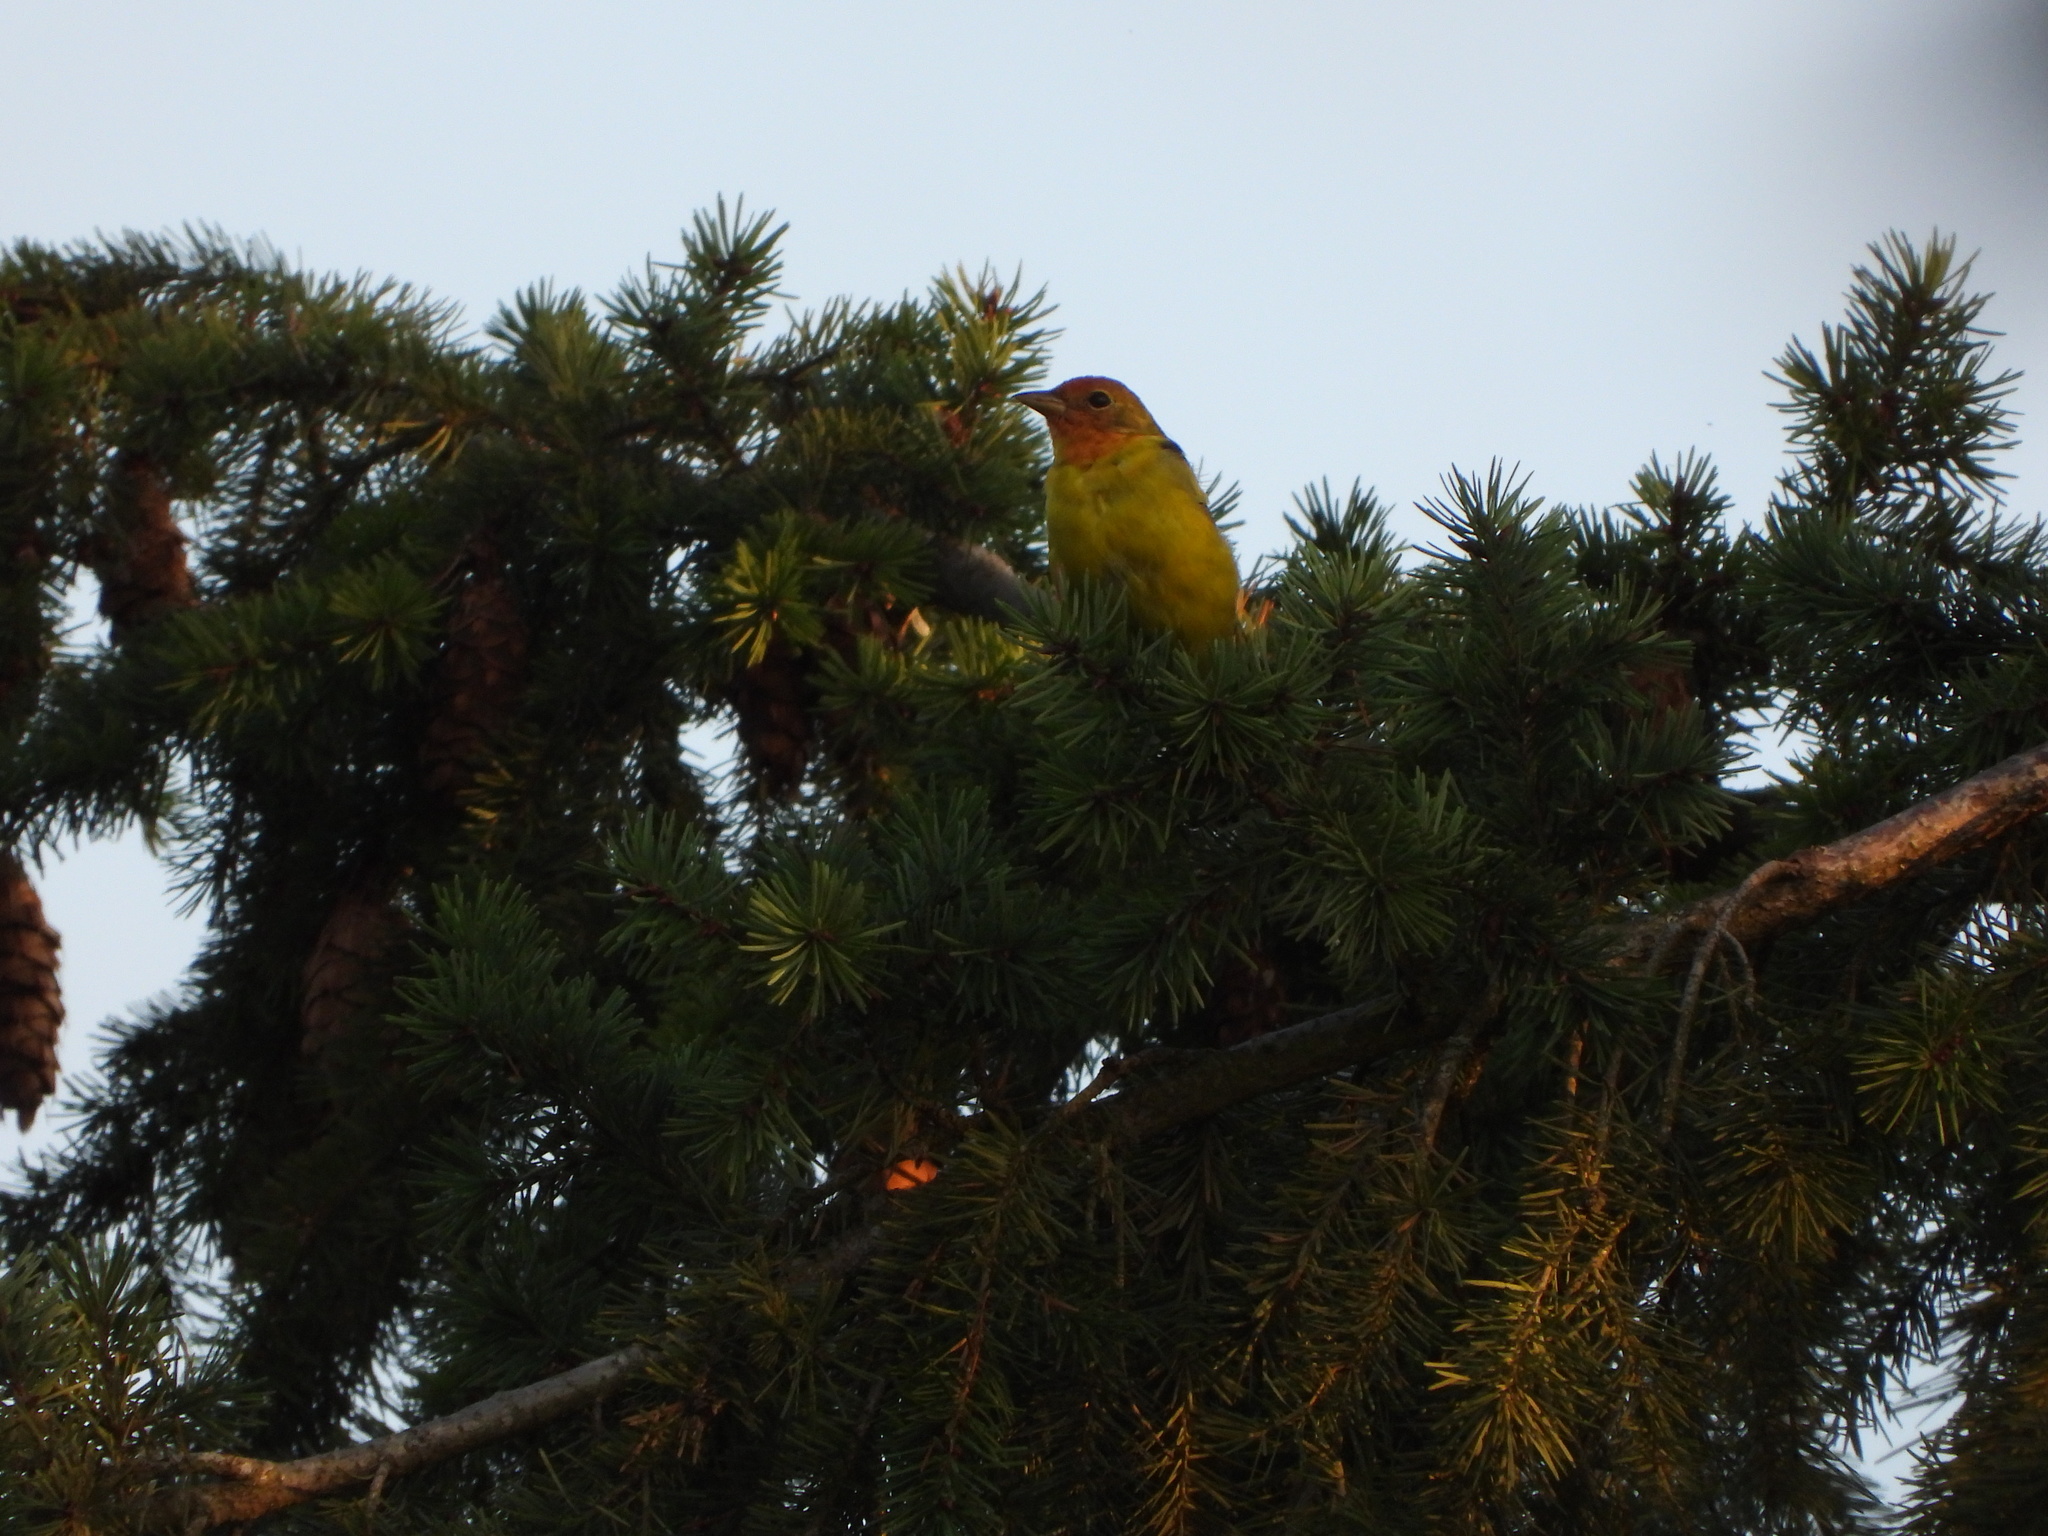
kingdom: Animalia
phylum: Chordata
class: Aves
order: Passeriformes
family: Cardinalidae
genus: Piranga
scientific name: Piranga ludoviciana
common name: Western tanager
